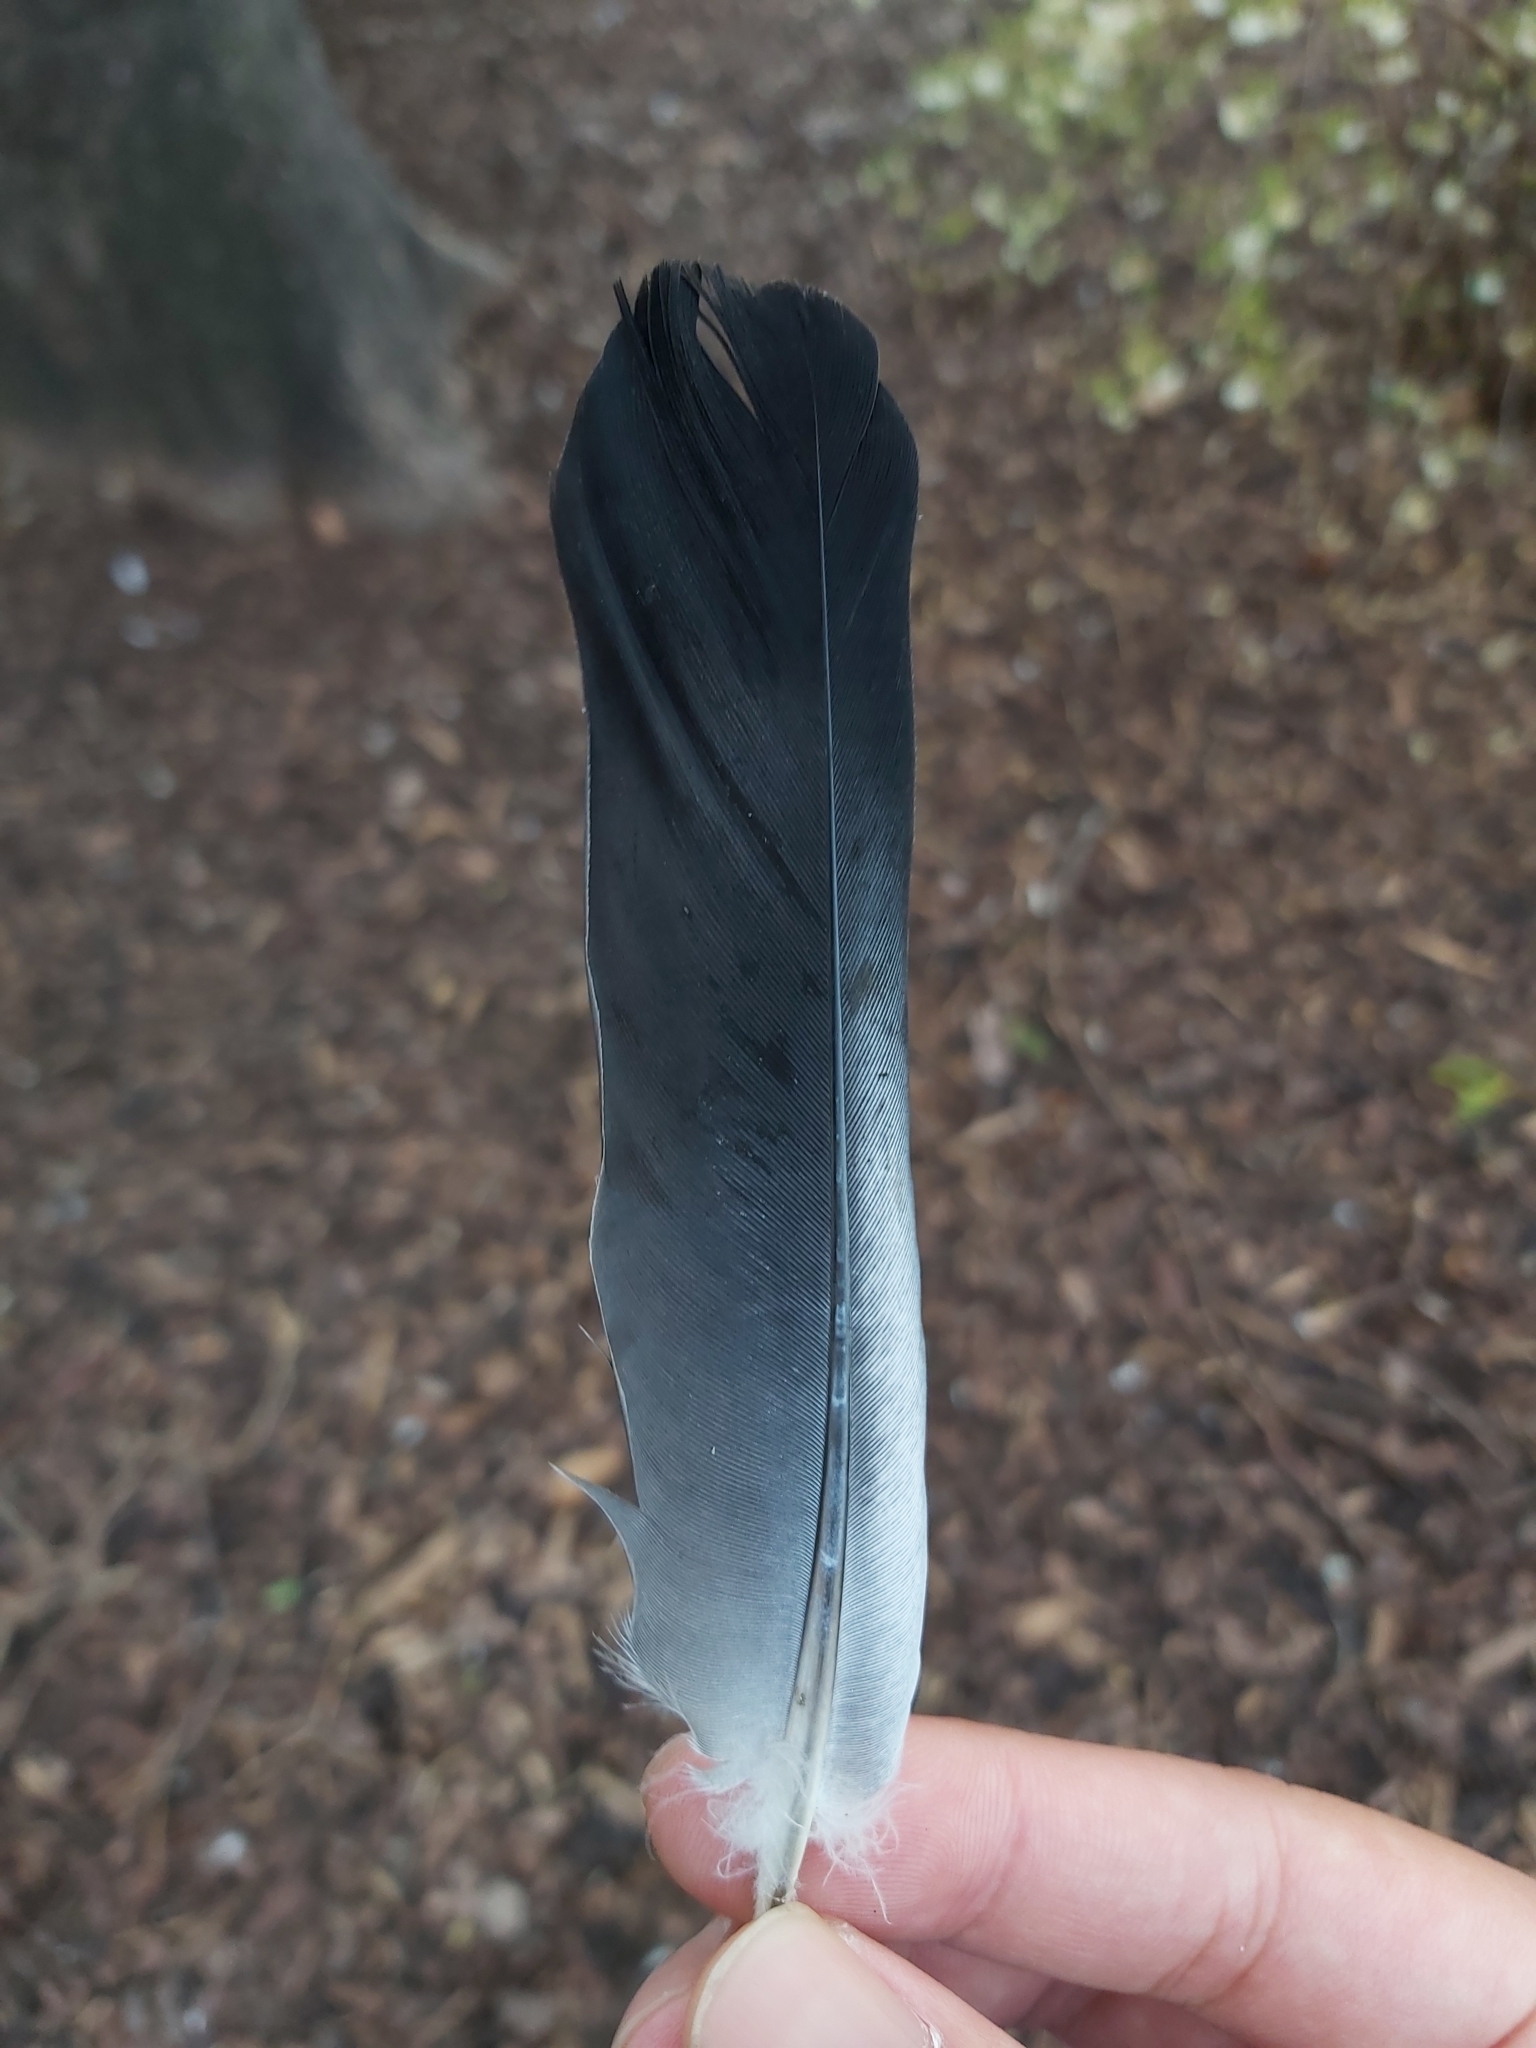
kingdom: Animalia
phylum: Chordata
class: Aves
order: Columbiformes
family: Columbidae
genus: Columba
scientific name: Columba livia
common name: Rock pigeon
